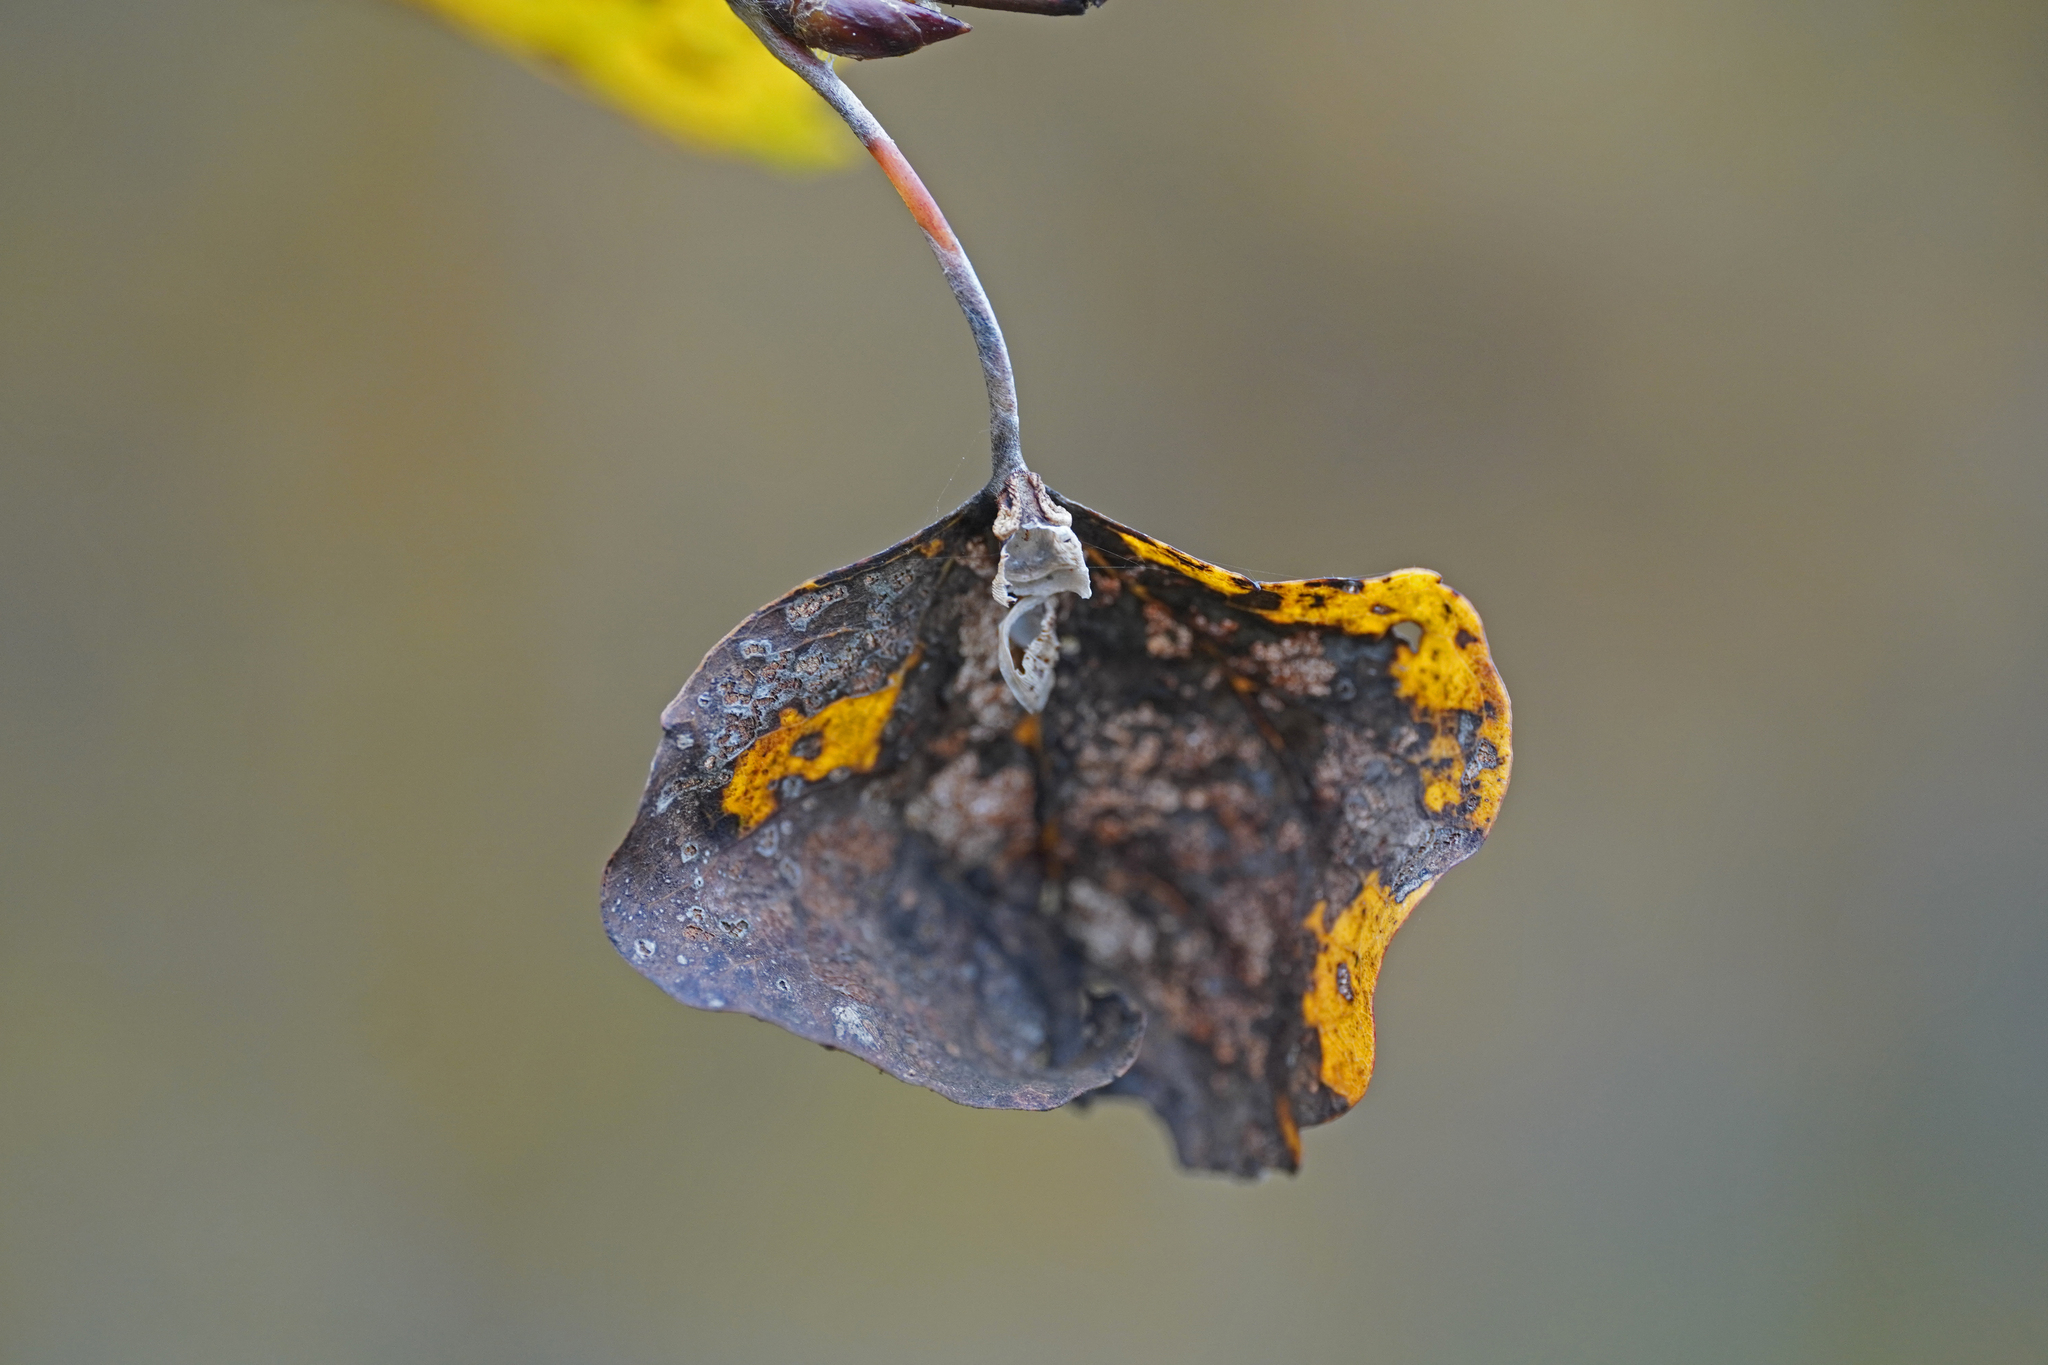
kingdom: Animalia
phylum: Arthropoda
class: Insecta
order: Lepidoptera
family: Nymphalidae
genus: Limenitis
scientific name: Limenitis populi
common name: Poplar admiral
